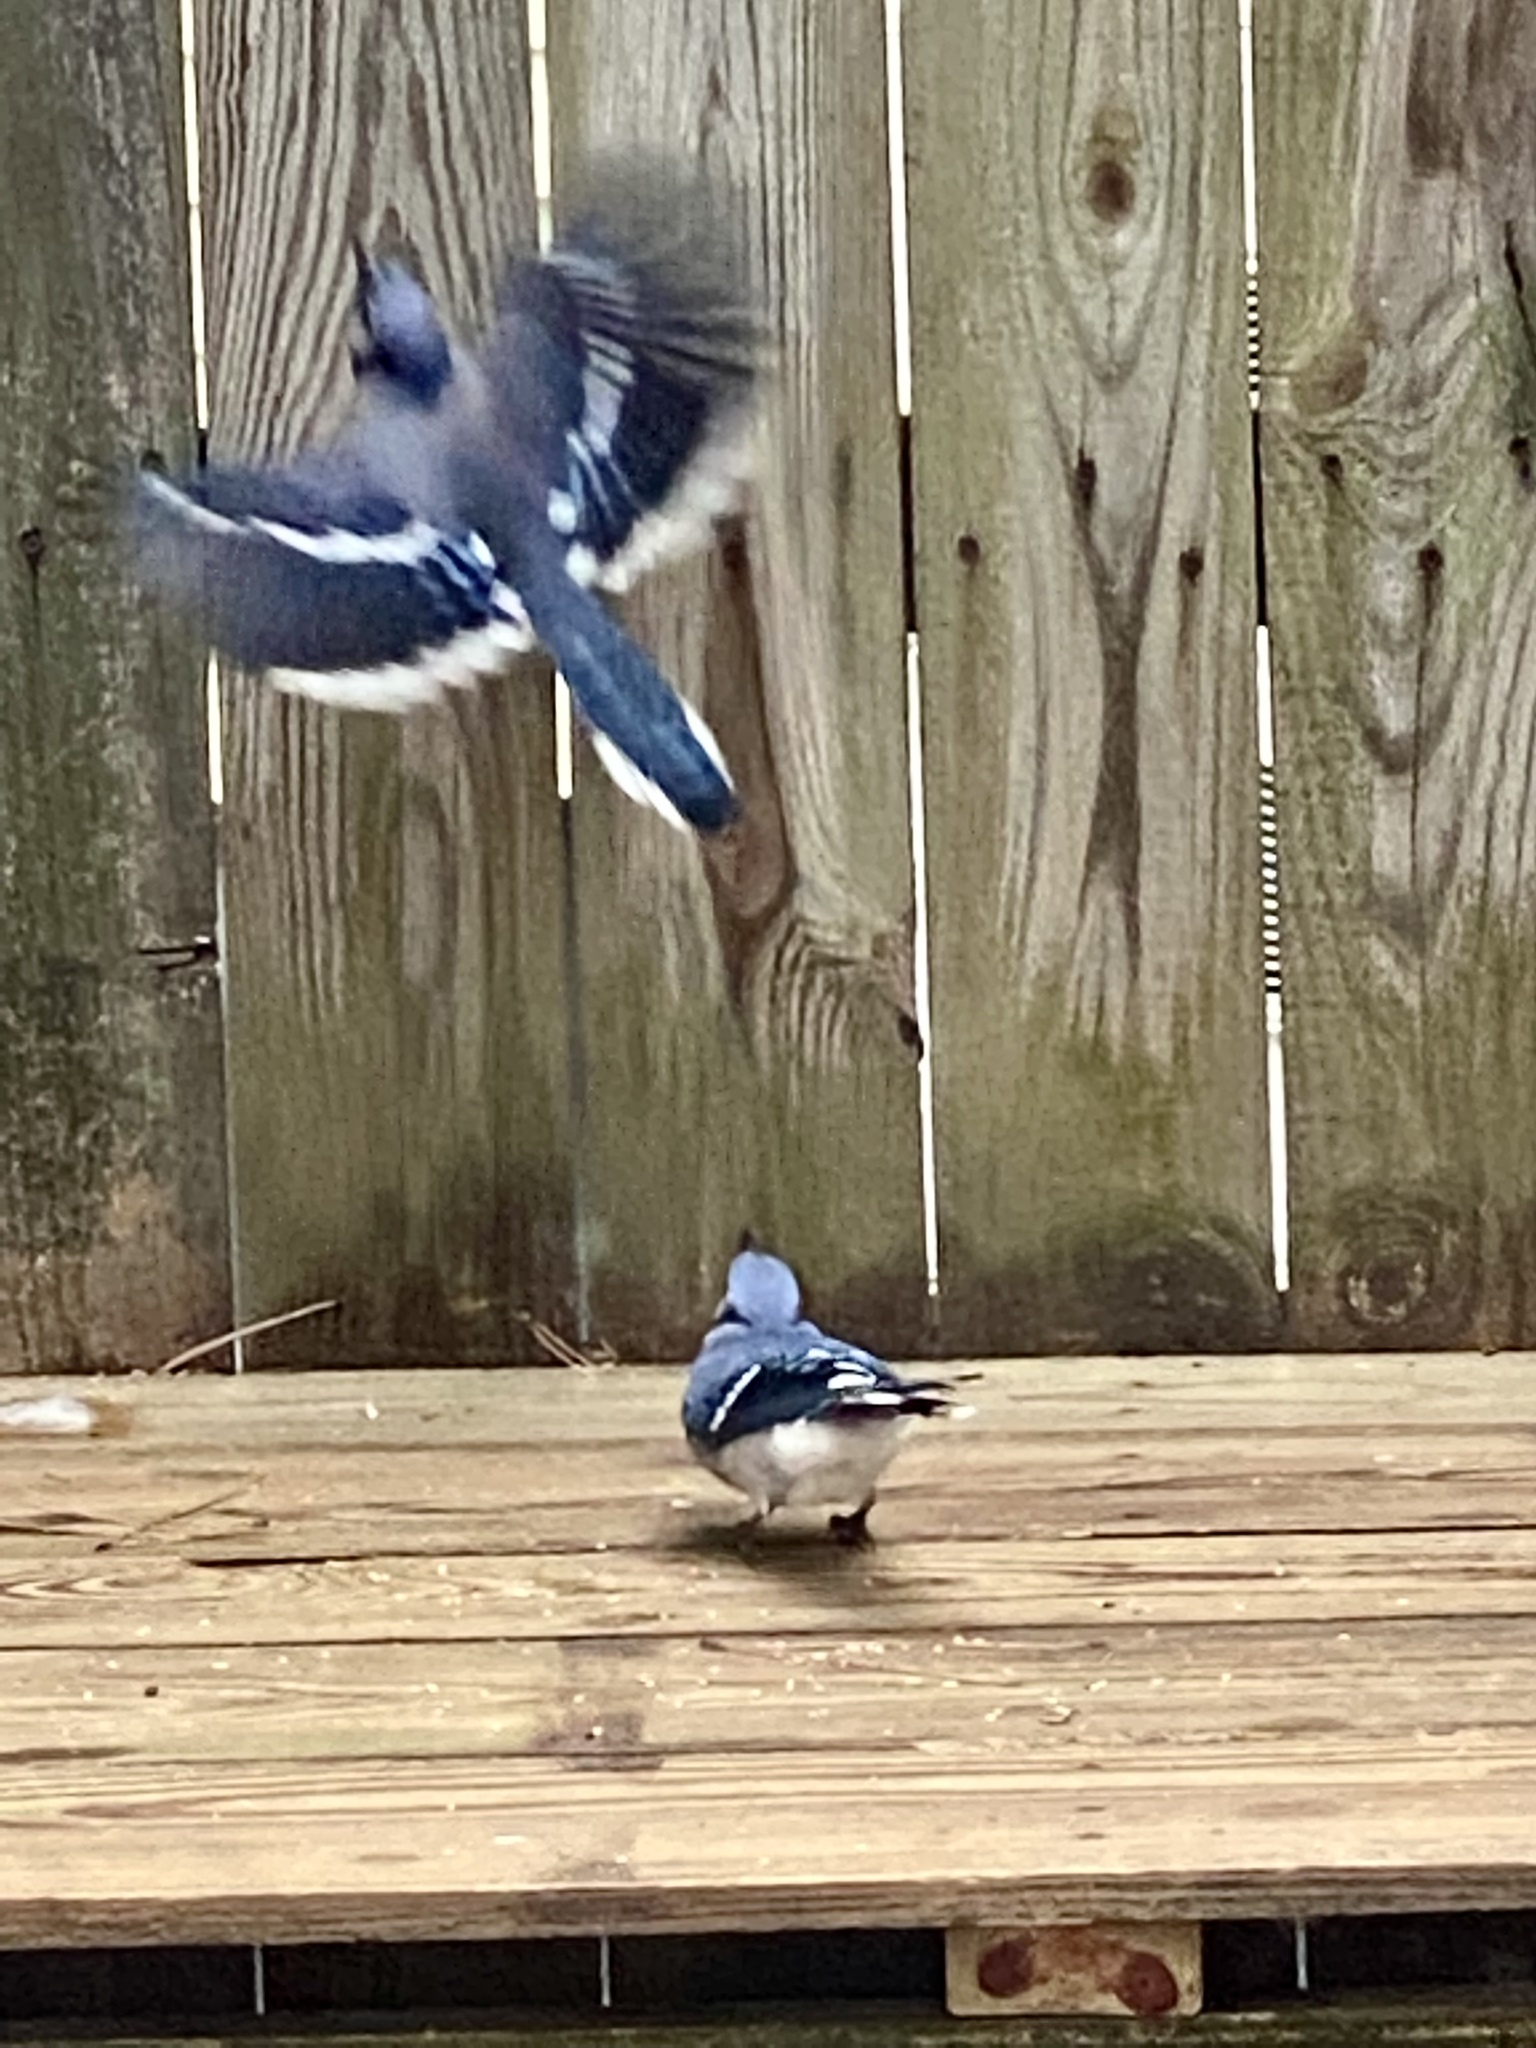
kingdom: Animalia
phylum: Chordata
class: Aves
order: Passeriformes
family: Corvidae
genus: Cyanocitta
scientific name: Cyanocitta cristata
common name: Blue jay
